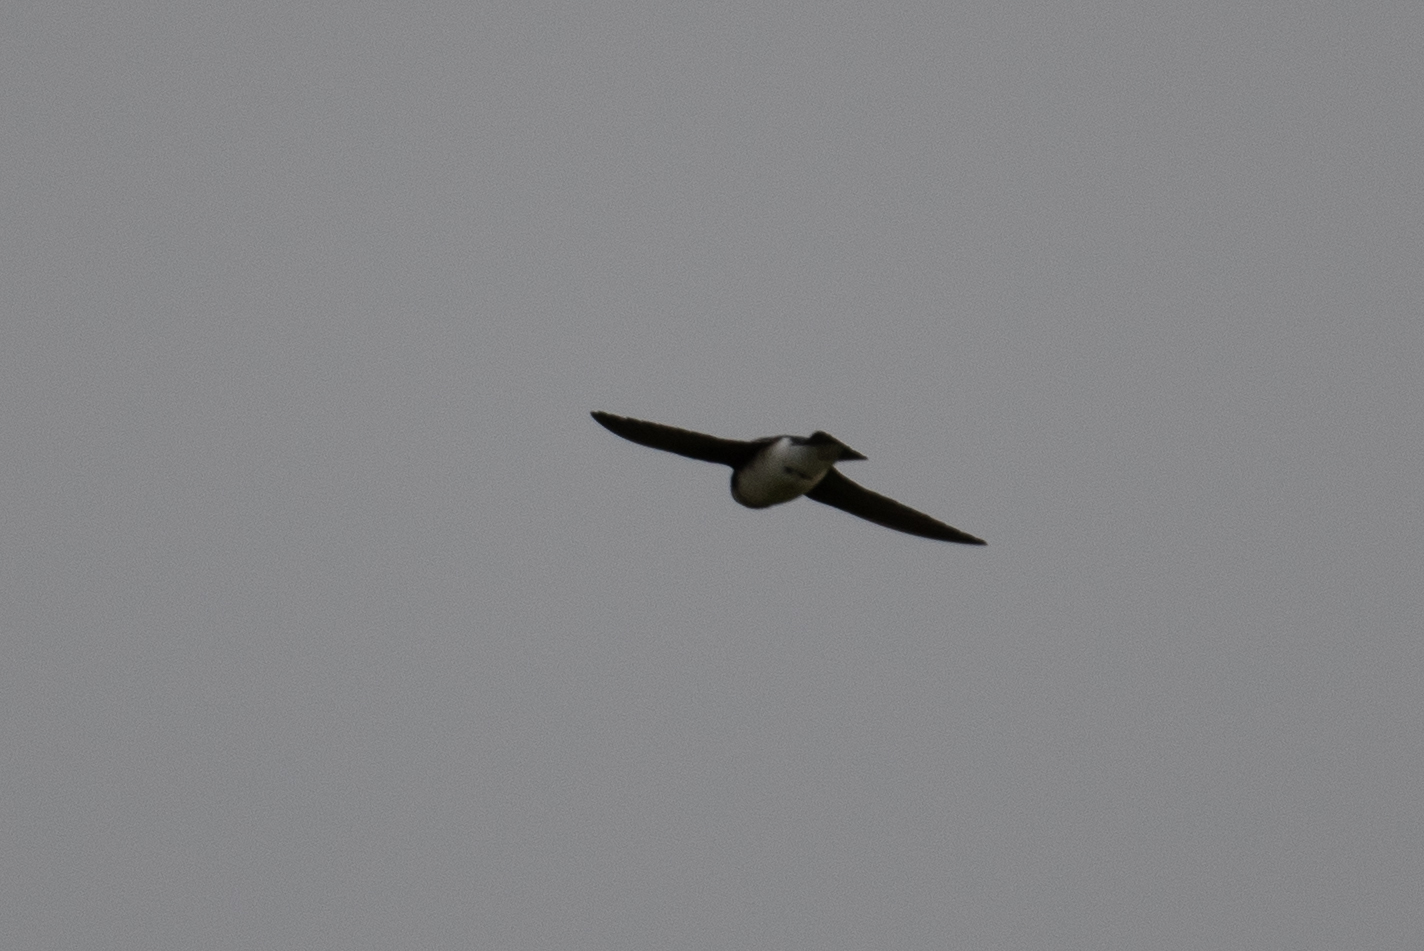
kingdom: Animalia
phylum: Chordata
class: Aves
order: Passeriformes
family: Hirundinidae
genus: Tachycineta
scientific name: Tachycineta bicolor
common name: Tree swallow
